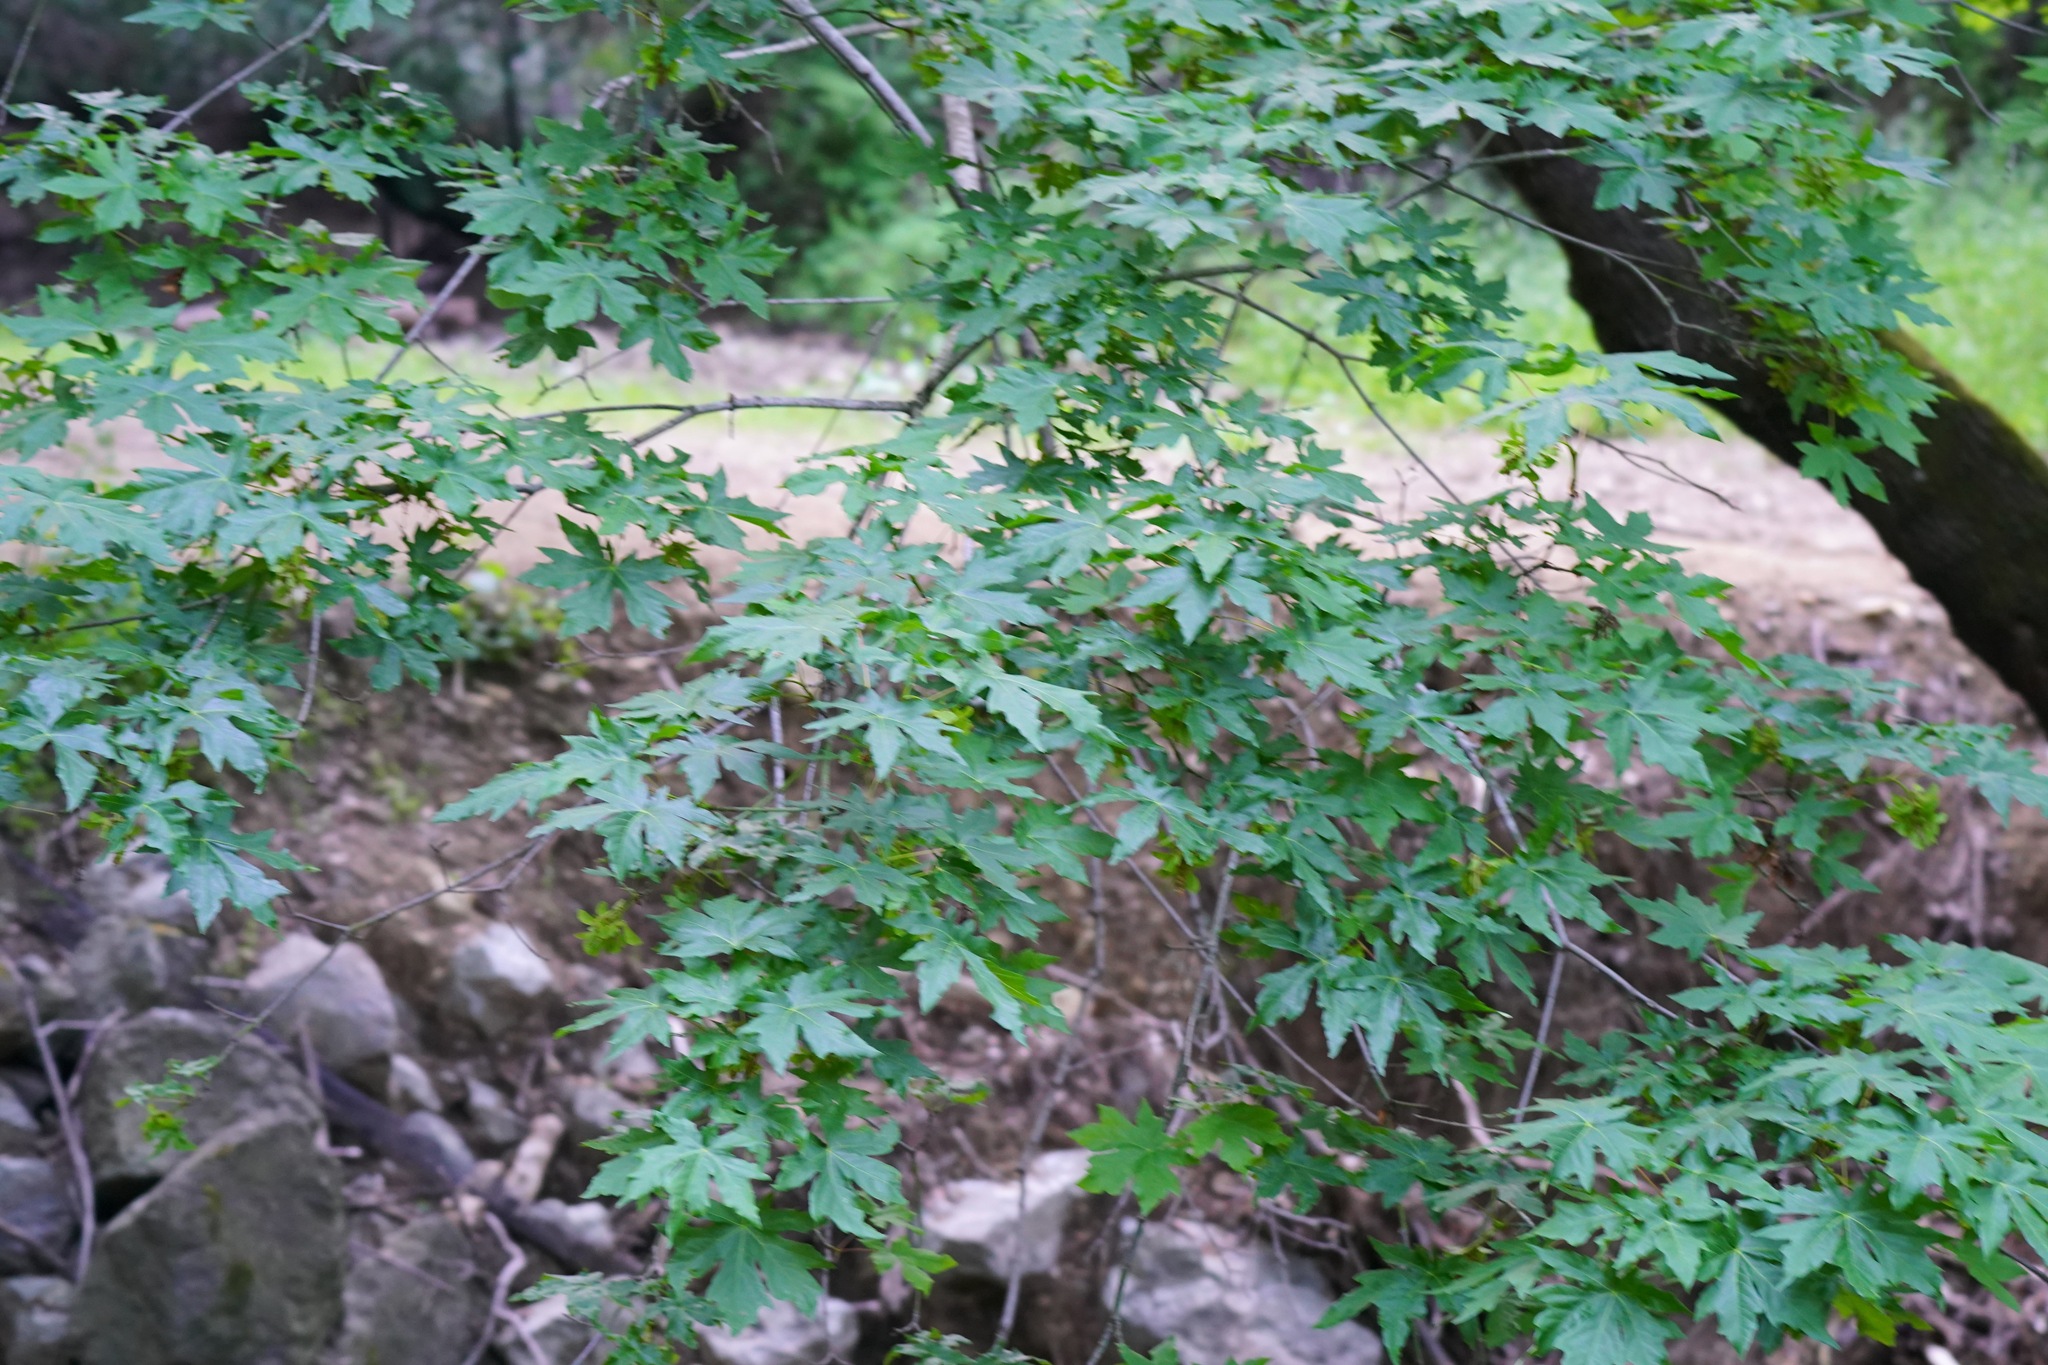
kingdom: Plantae
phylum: Tracheophyta
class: Magnoliopsida
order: Sapindales
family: Sapindaceae
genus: Acer
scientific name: Acer macrophyllum
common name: Oregon maple
